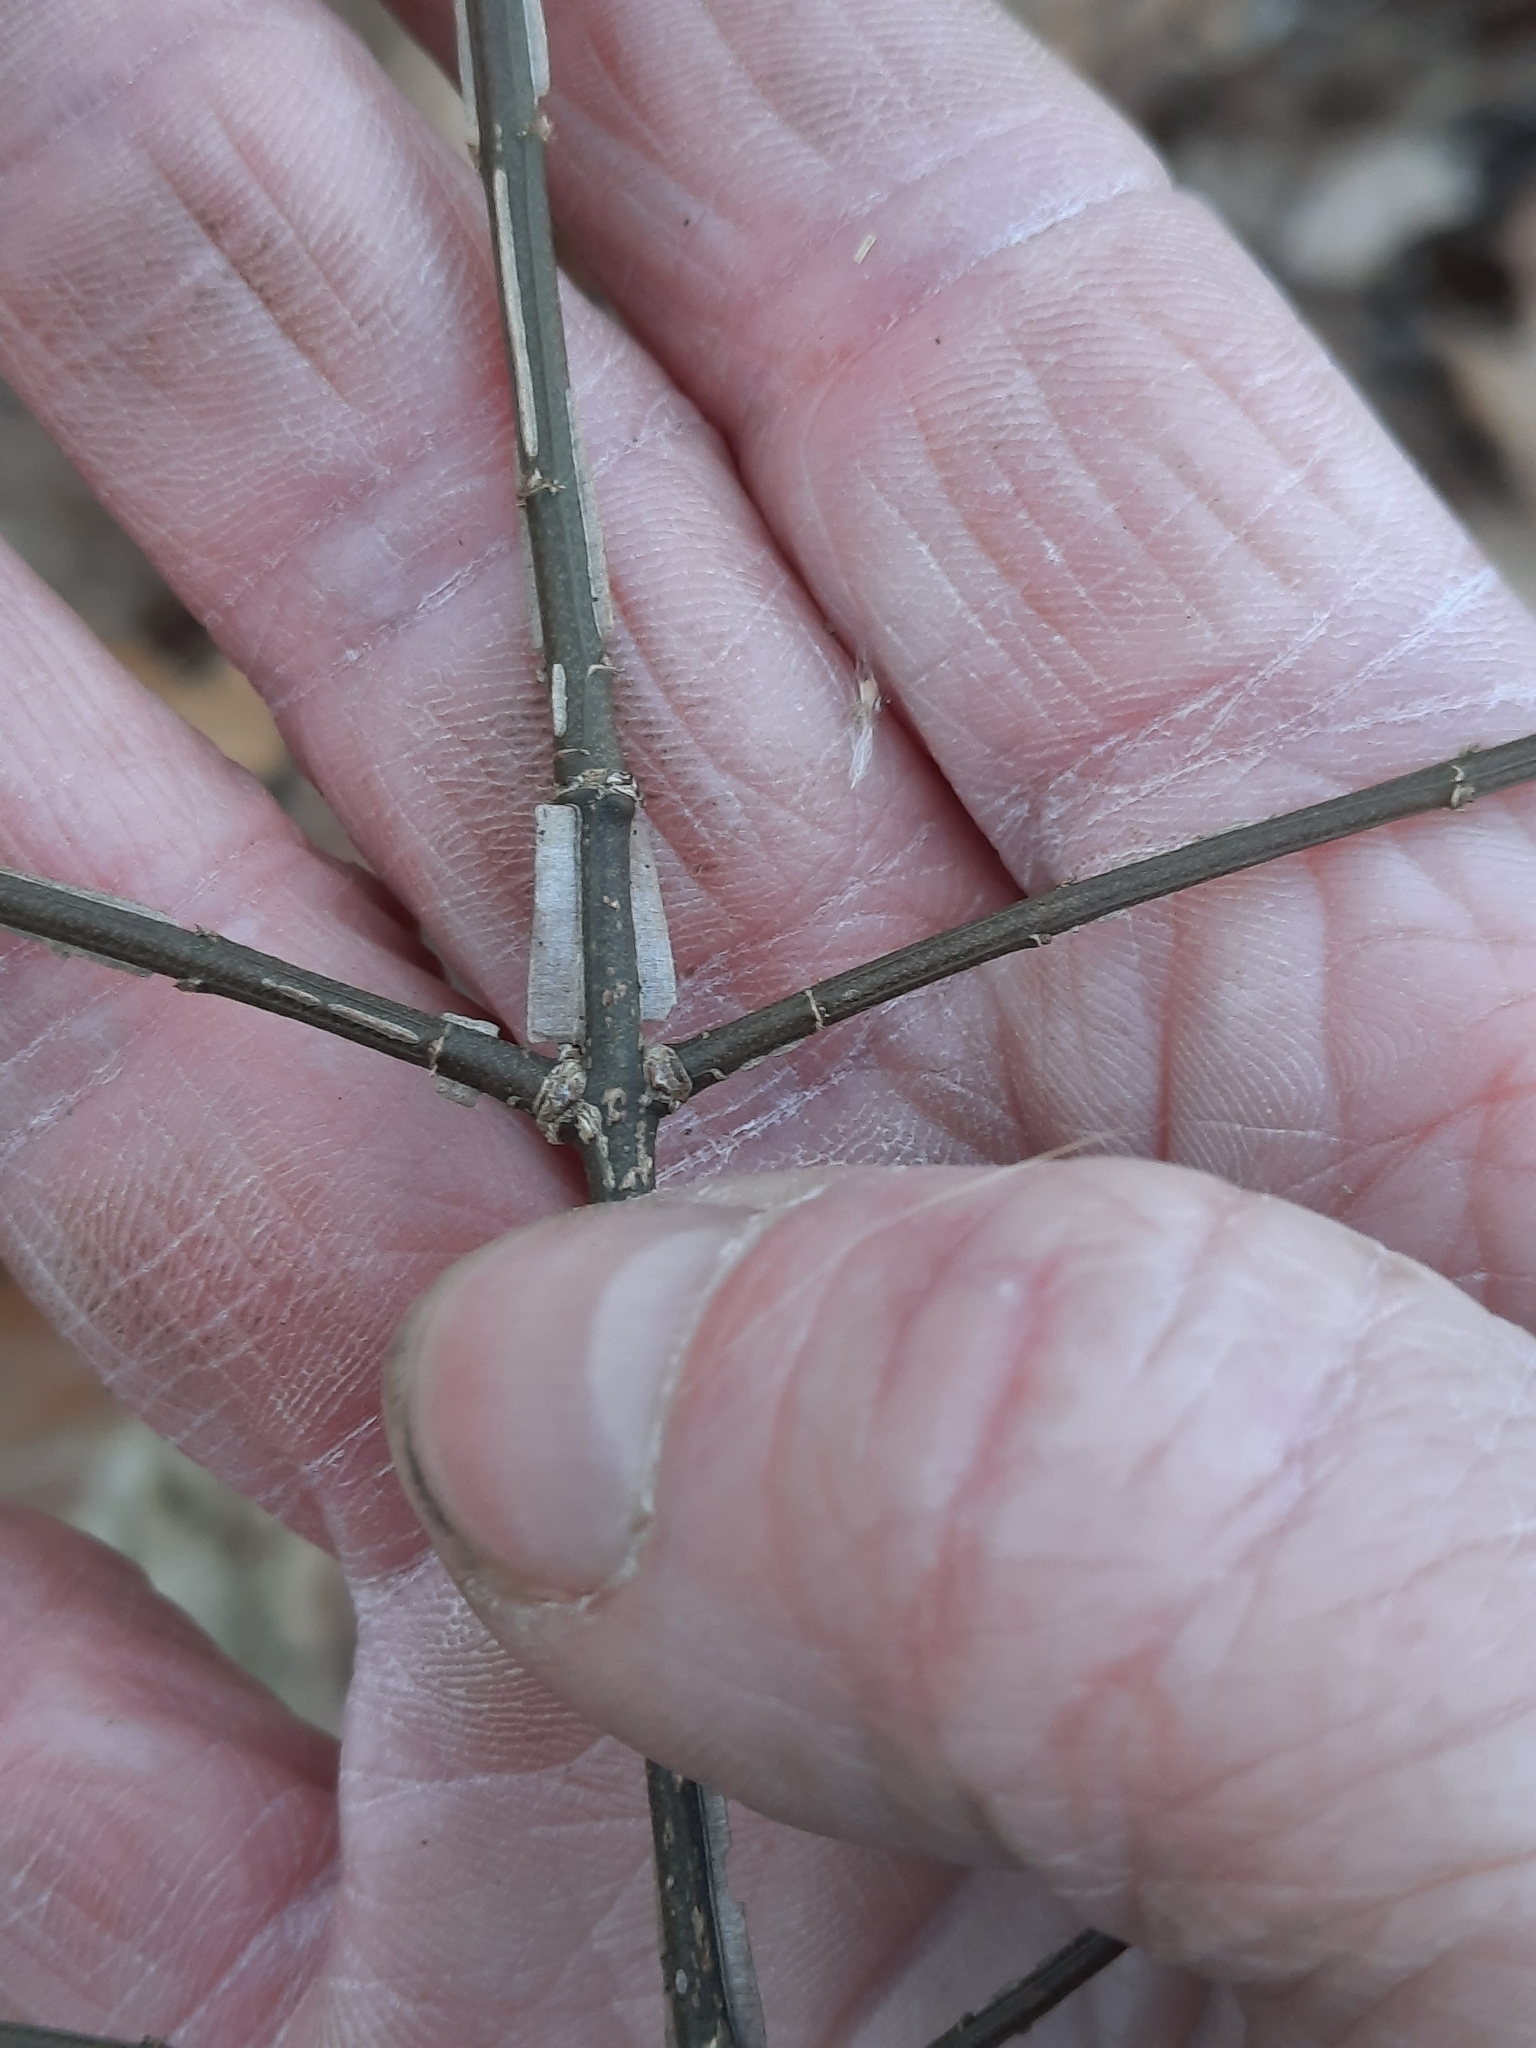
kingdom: Plantae
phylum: Tracheophyta
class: Magnoliopsida
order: Celastrales
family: Celastraceae
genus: Euonymus
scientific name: Euonymus alatus
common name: Winged euonymus
